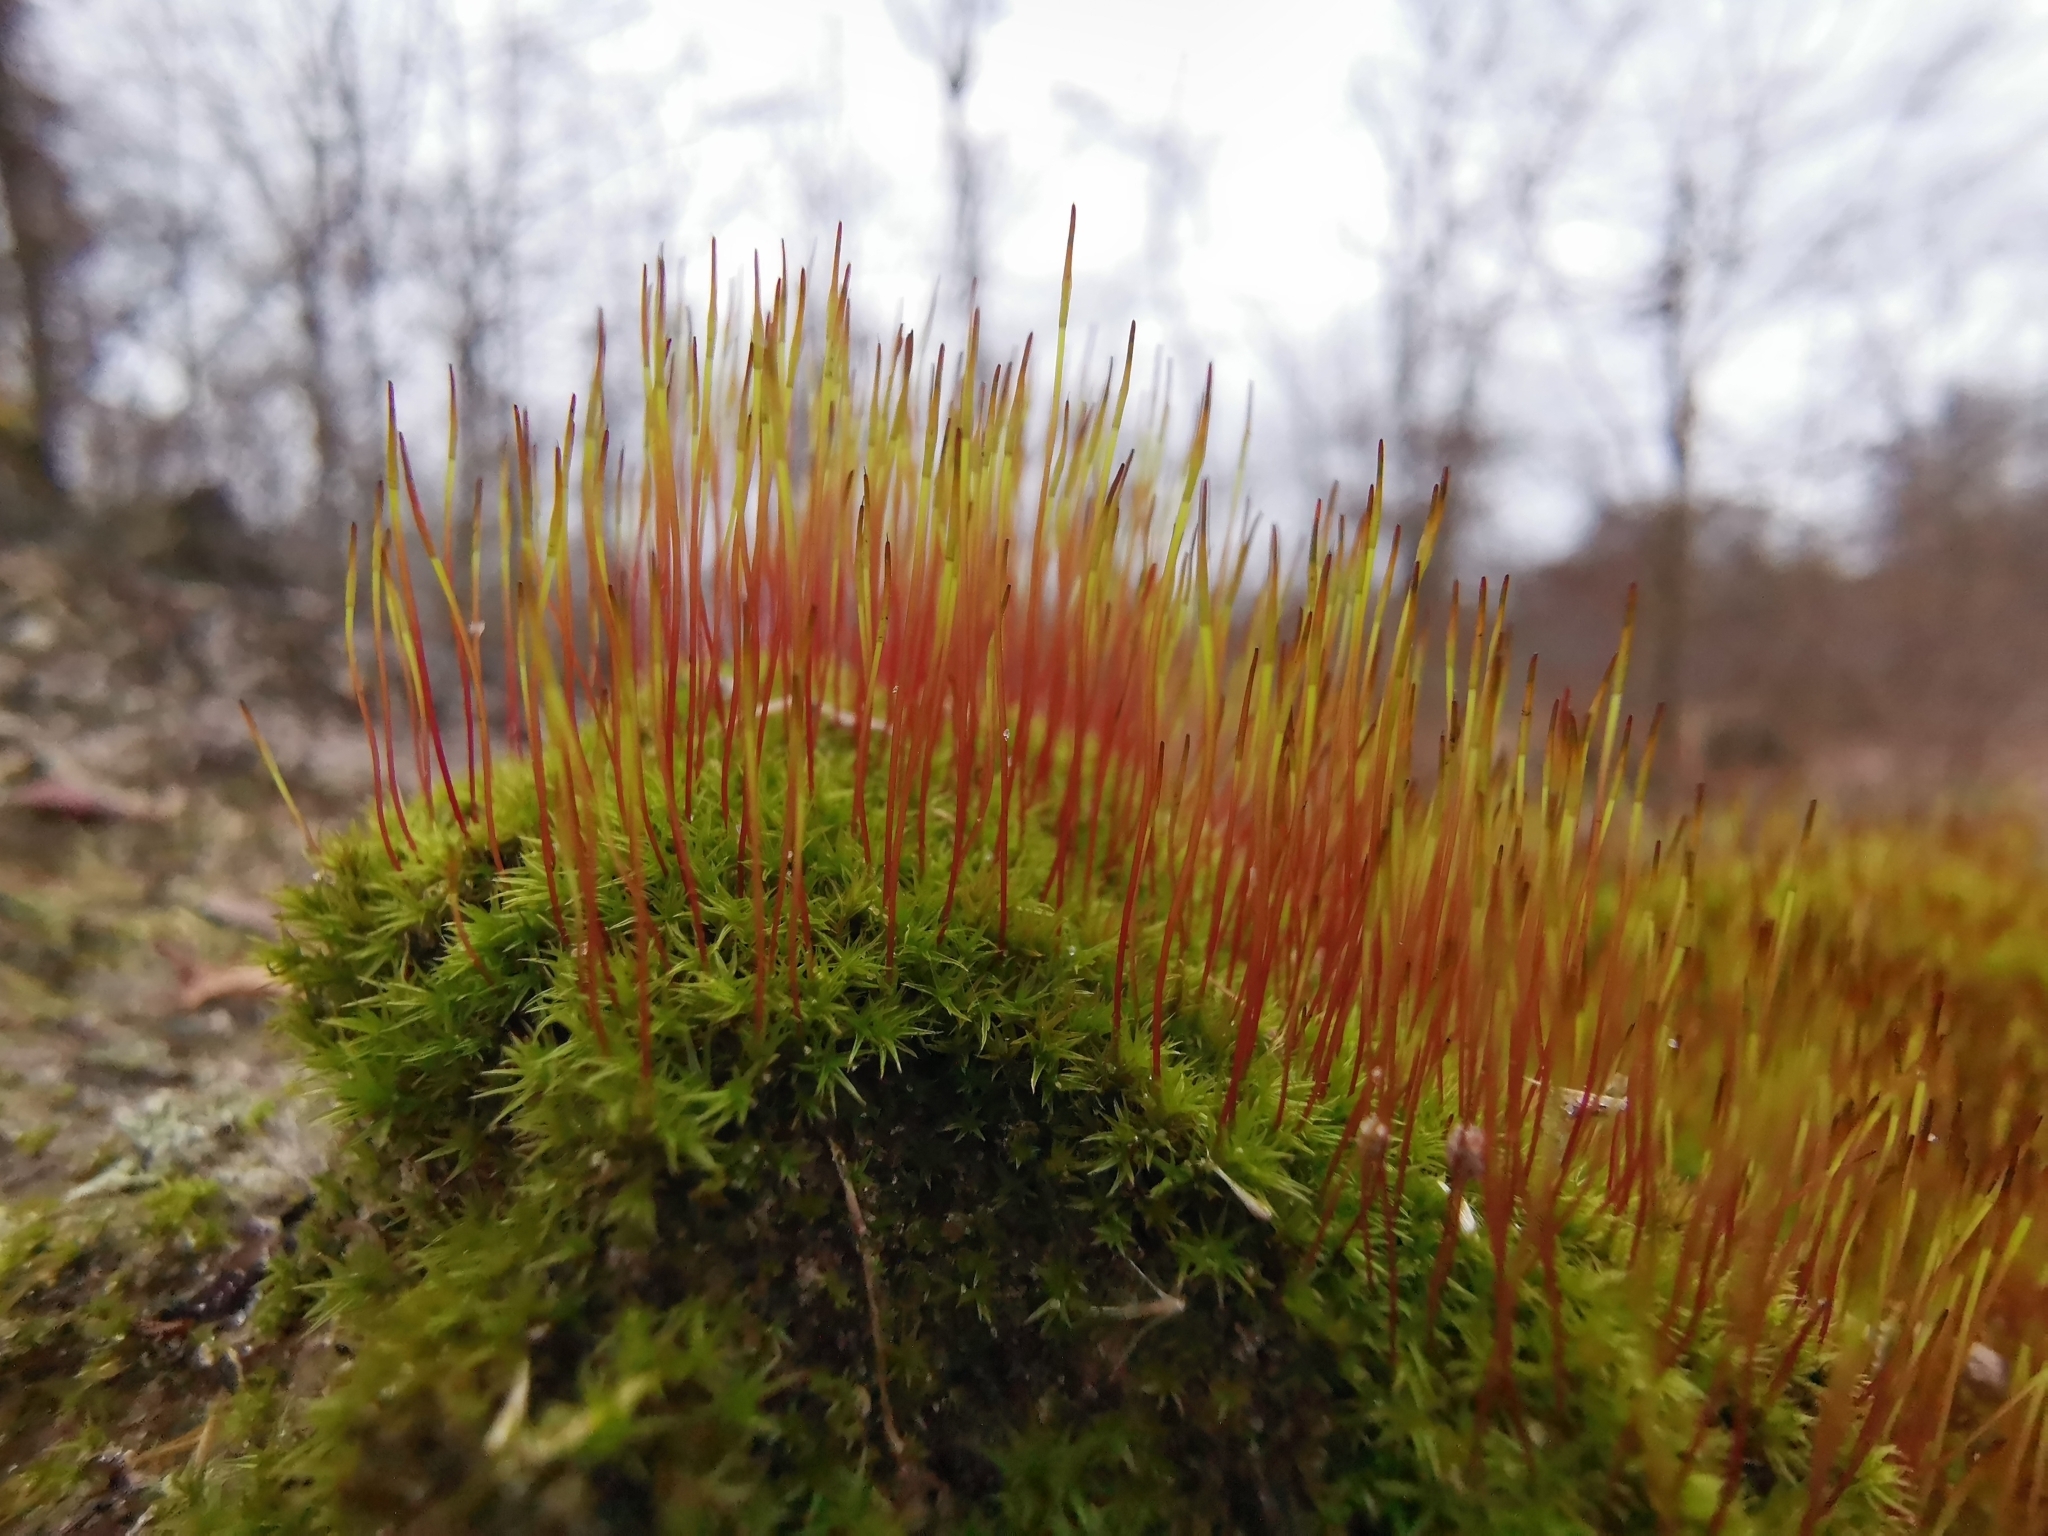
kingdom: Plantae
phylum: Bryophyta
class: Bryopsida
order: Dicranales
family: Ditrichaceae
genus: Ceratodon
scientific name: Ceratodon purpureus
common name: Redshank
